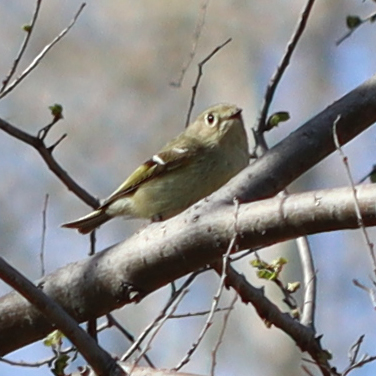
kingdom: Animalia
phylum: Chordata
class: Aves
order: Passeriformes
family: Regulidae
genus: Regulus
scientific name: Regulus calendula
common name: Ruby-crowned kinglet
